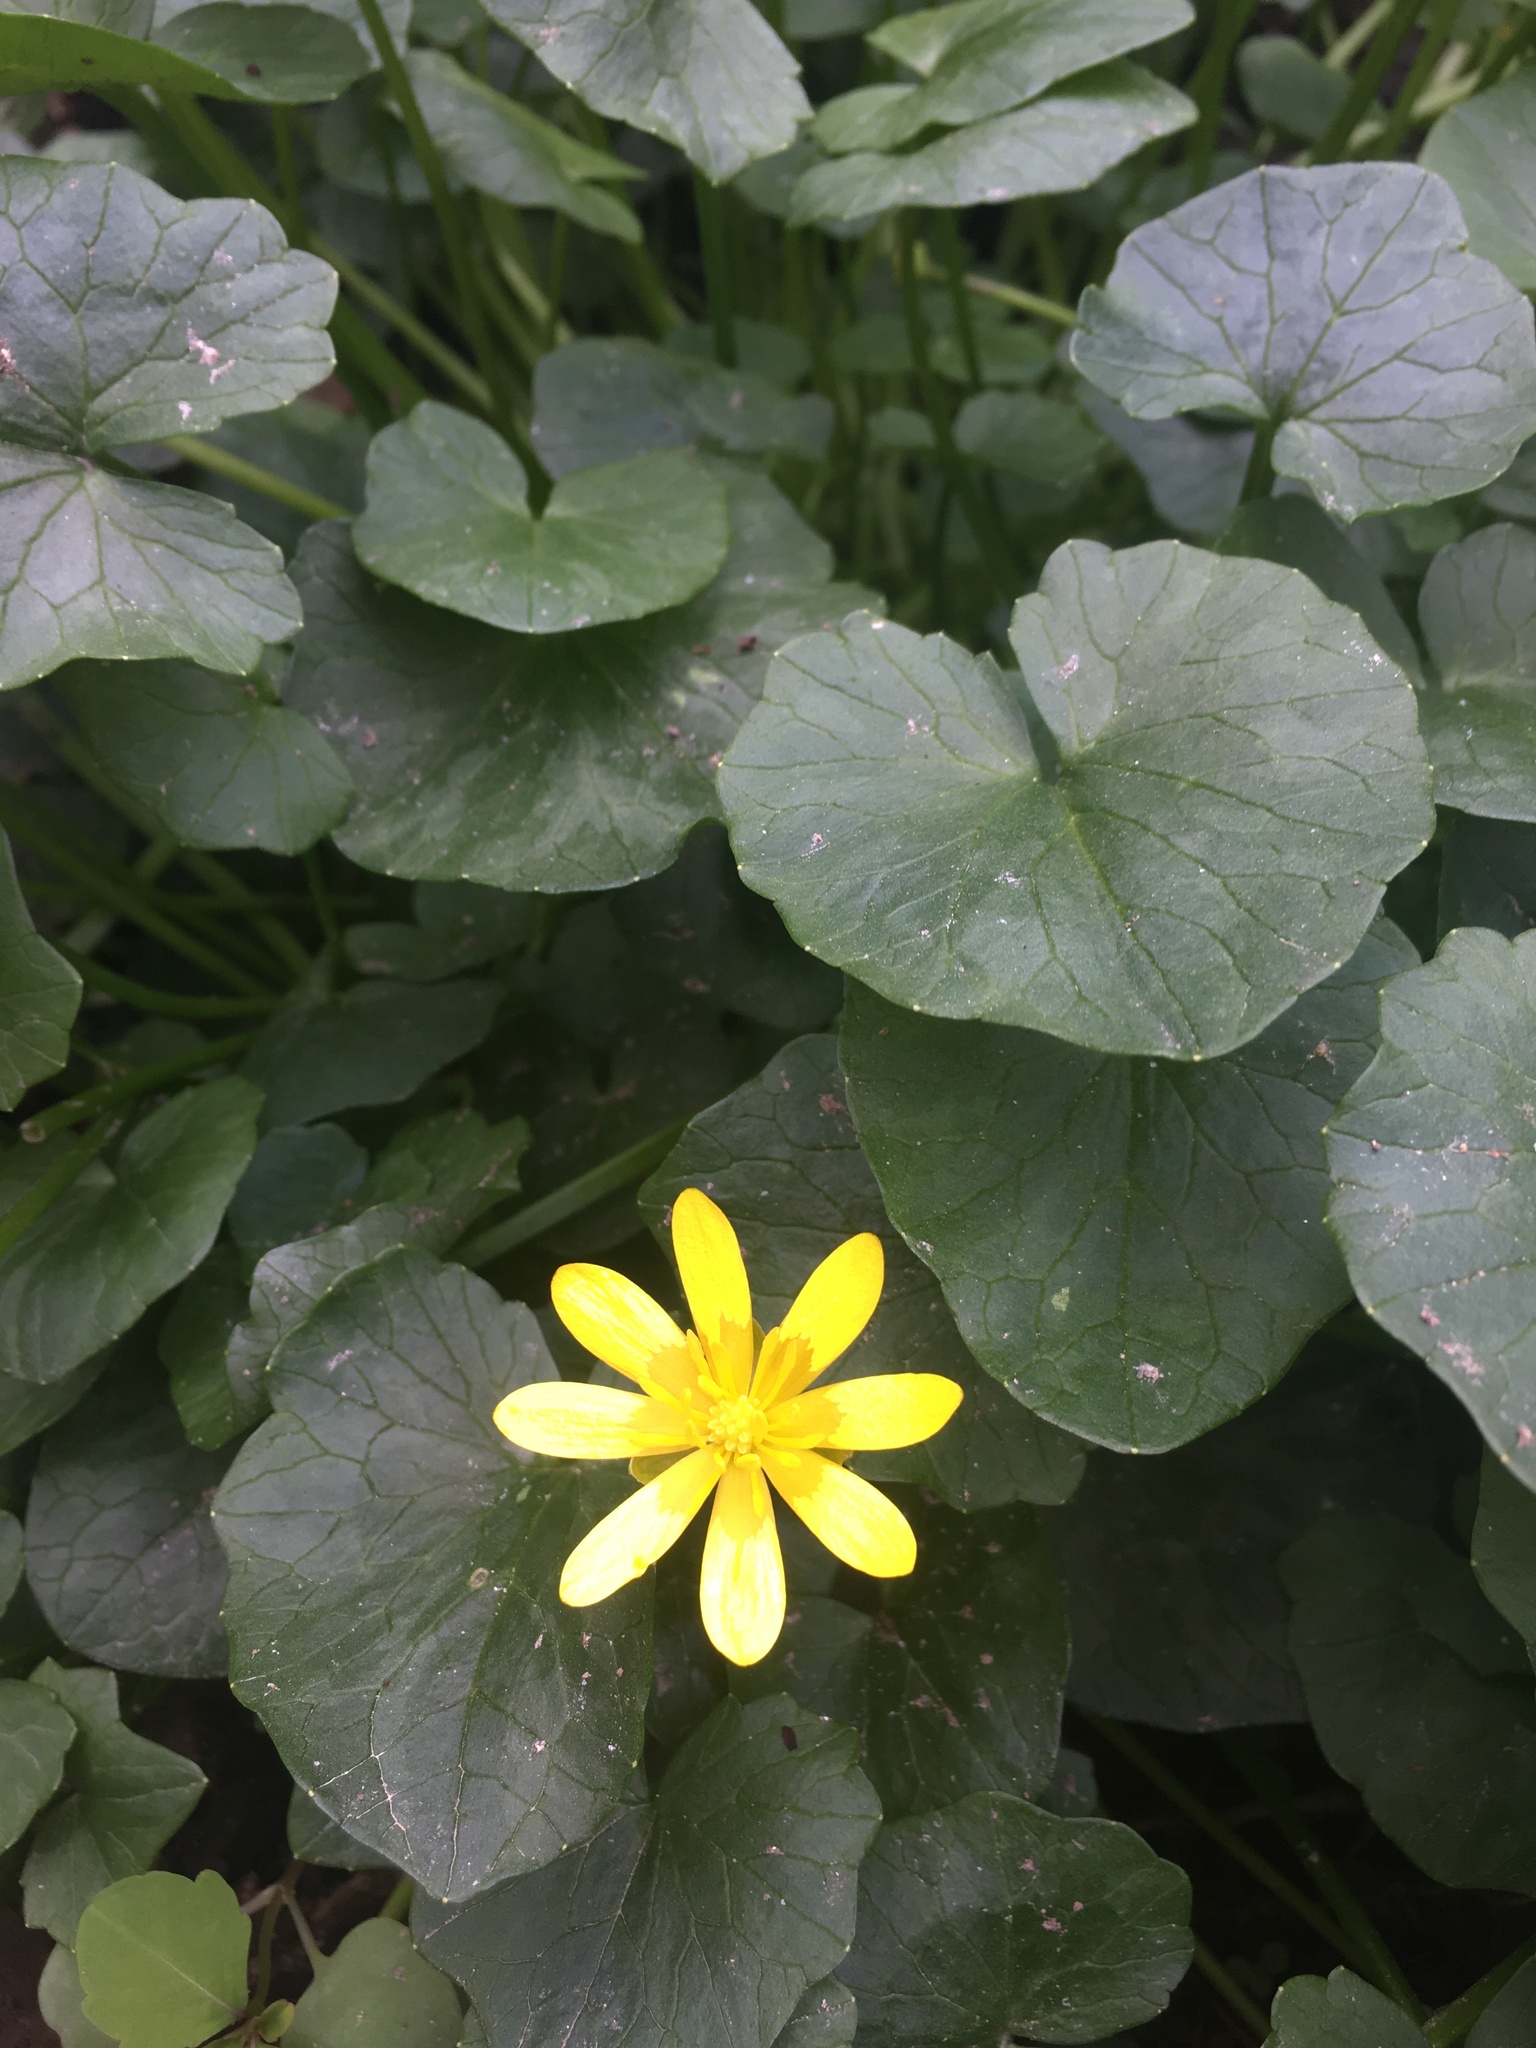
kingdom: Plantae
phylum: Tracheophyta
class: Magnoliopsida
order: Ranunculales
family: Ranunculaceae
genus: Ficaria
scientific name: Ficaria verna
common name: Lesser celandine
